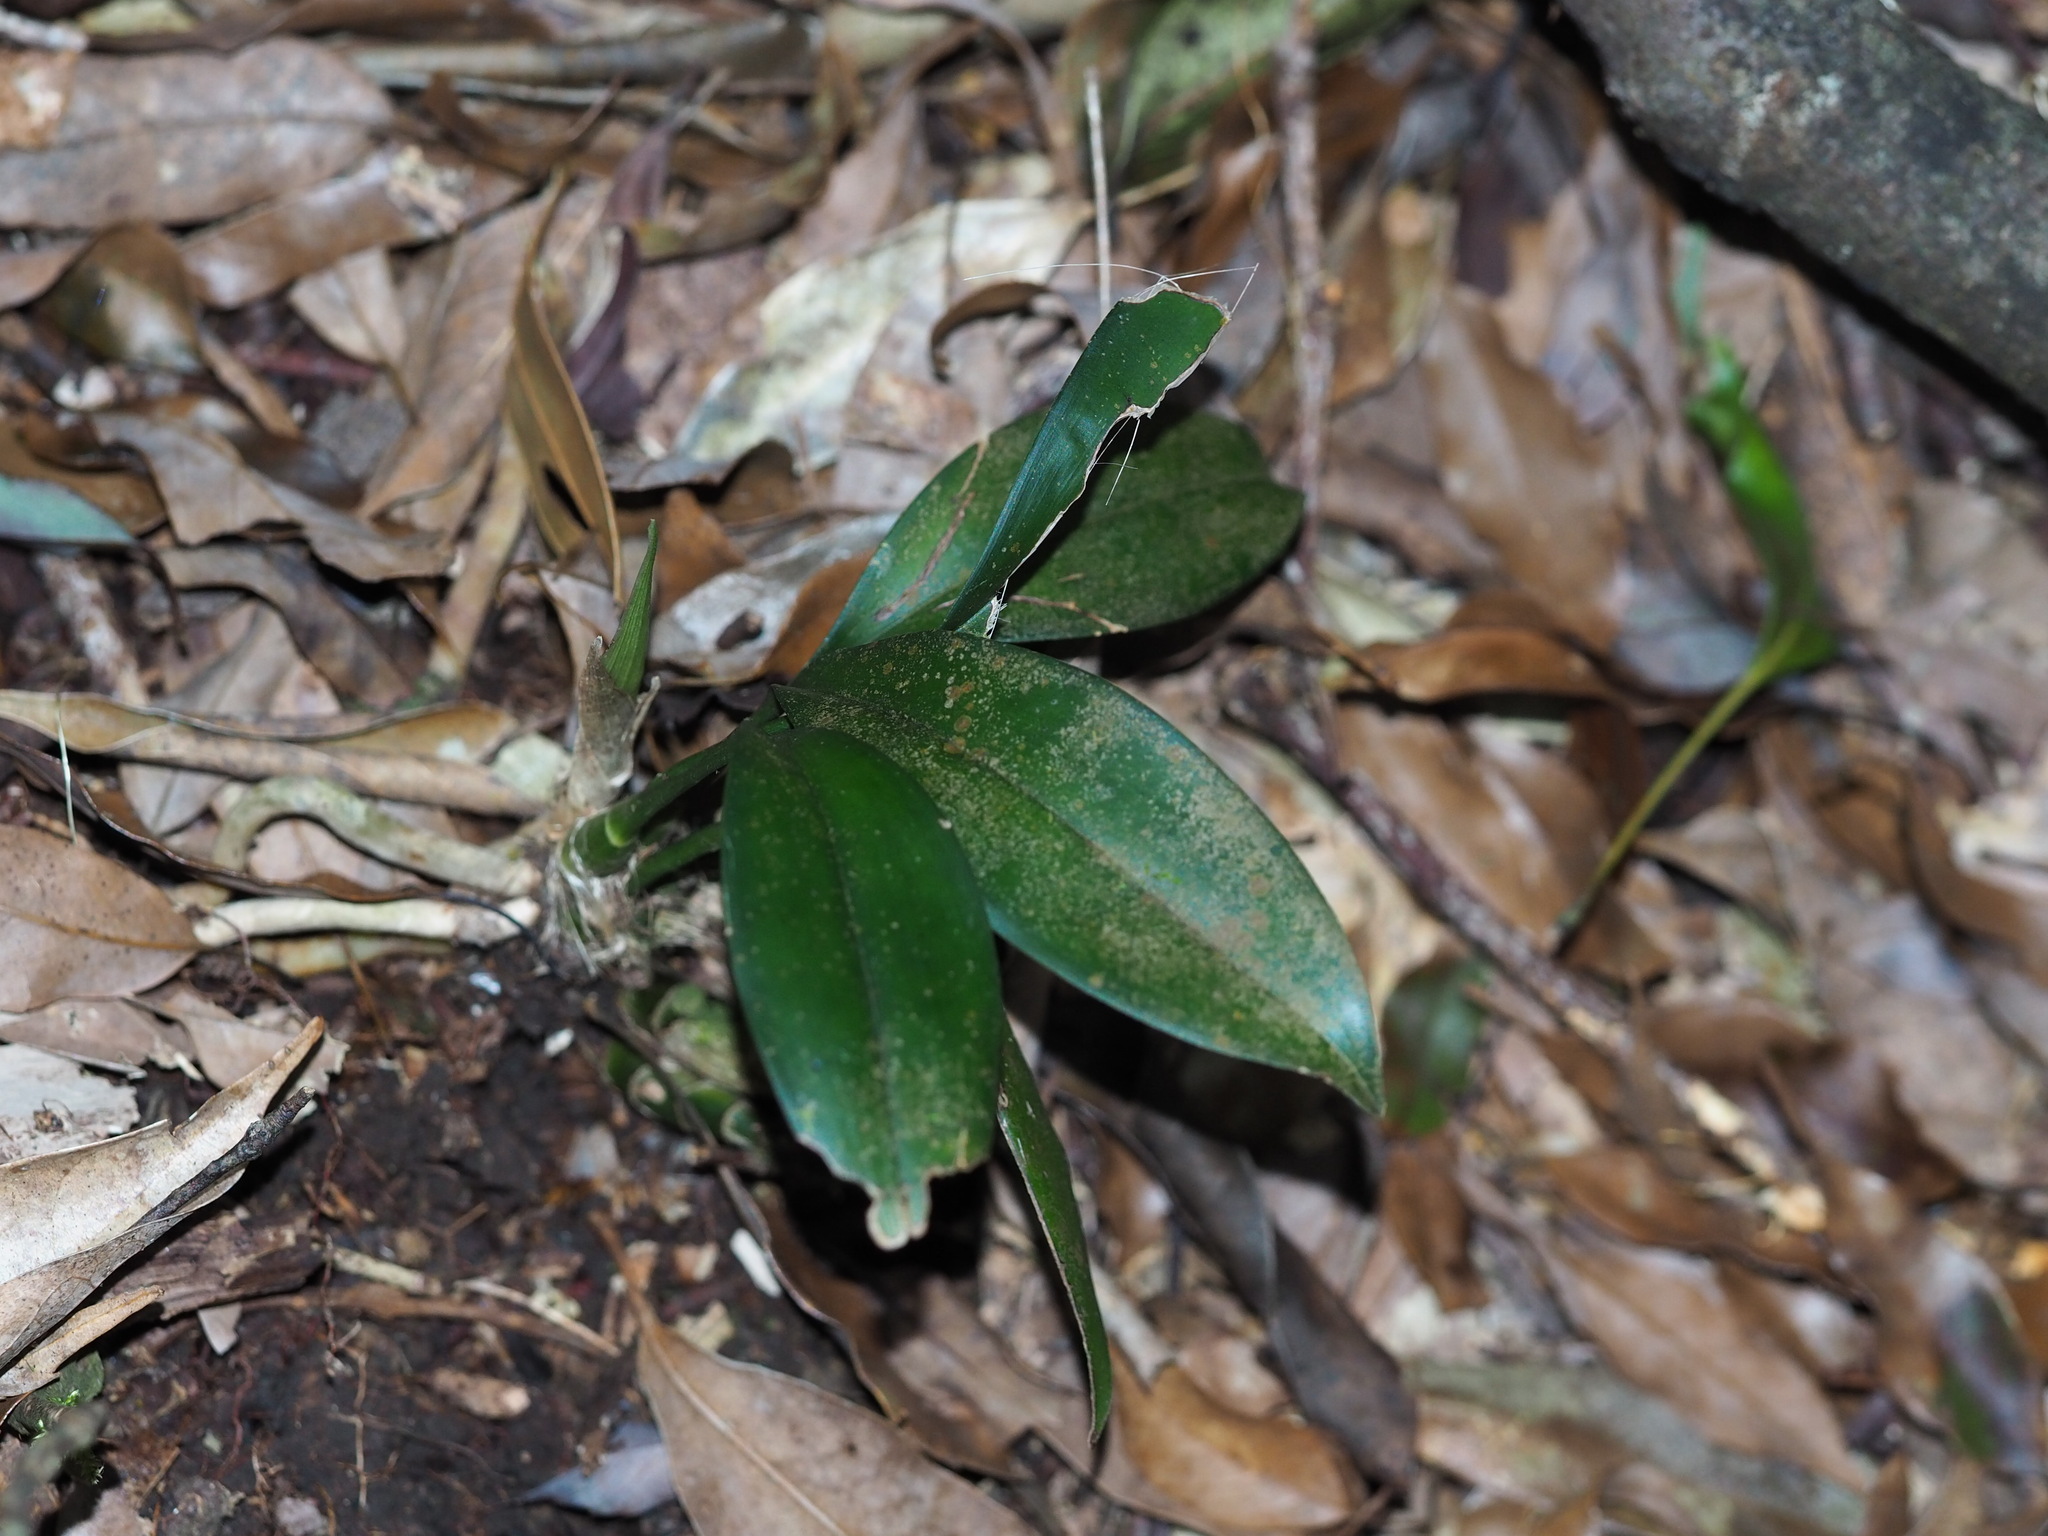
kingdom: Plantae
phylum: Tracheophyta
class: Liliopsida
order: Asparagales
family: Orchidaceae
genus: Cymbidium
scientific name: Cymbidium lancifolium
